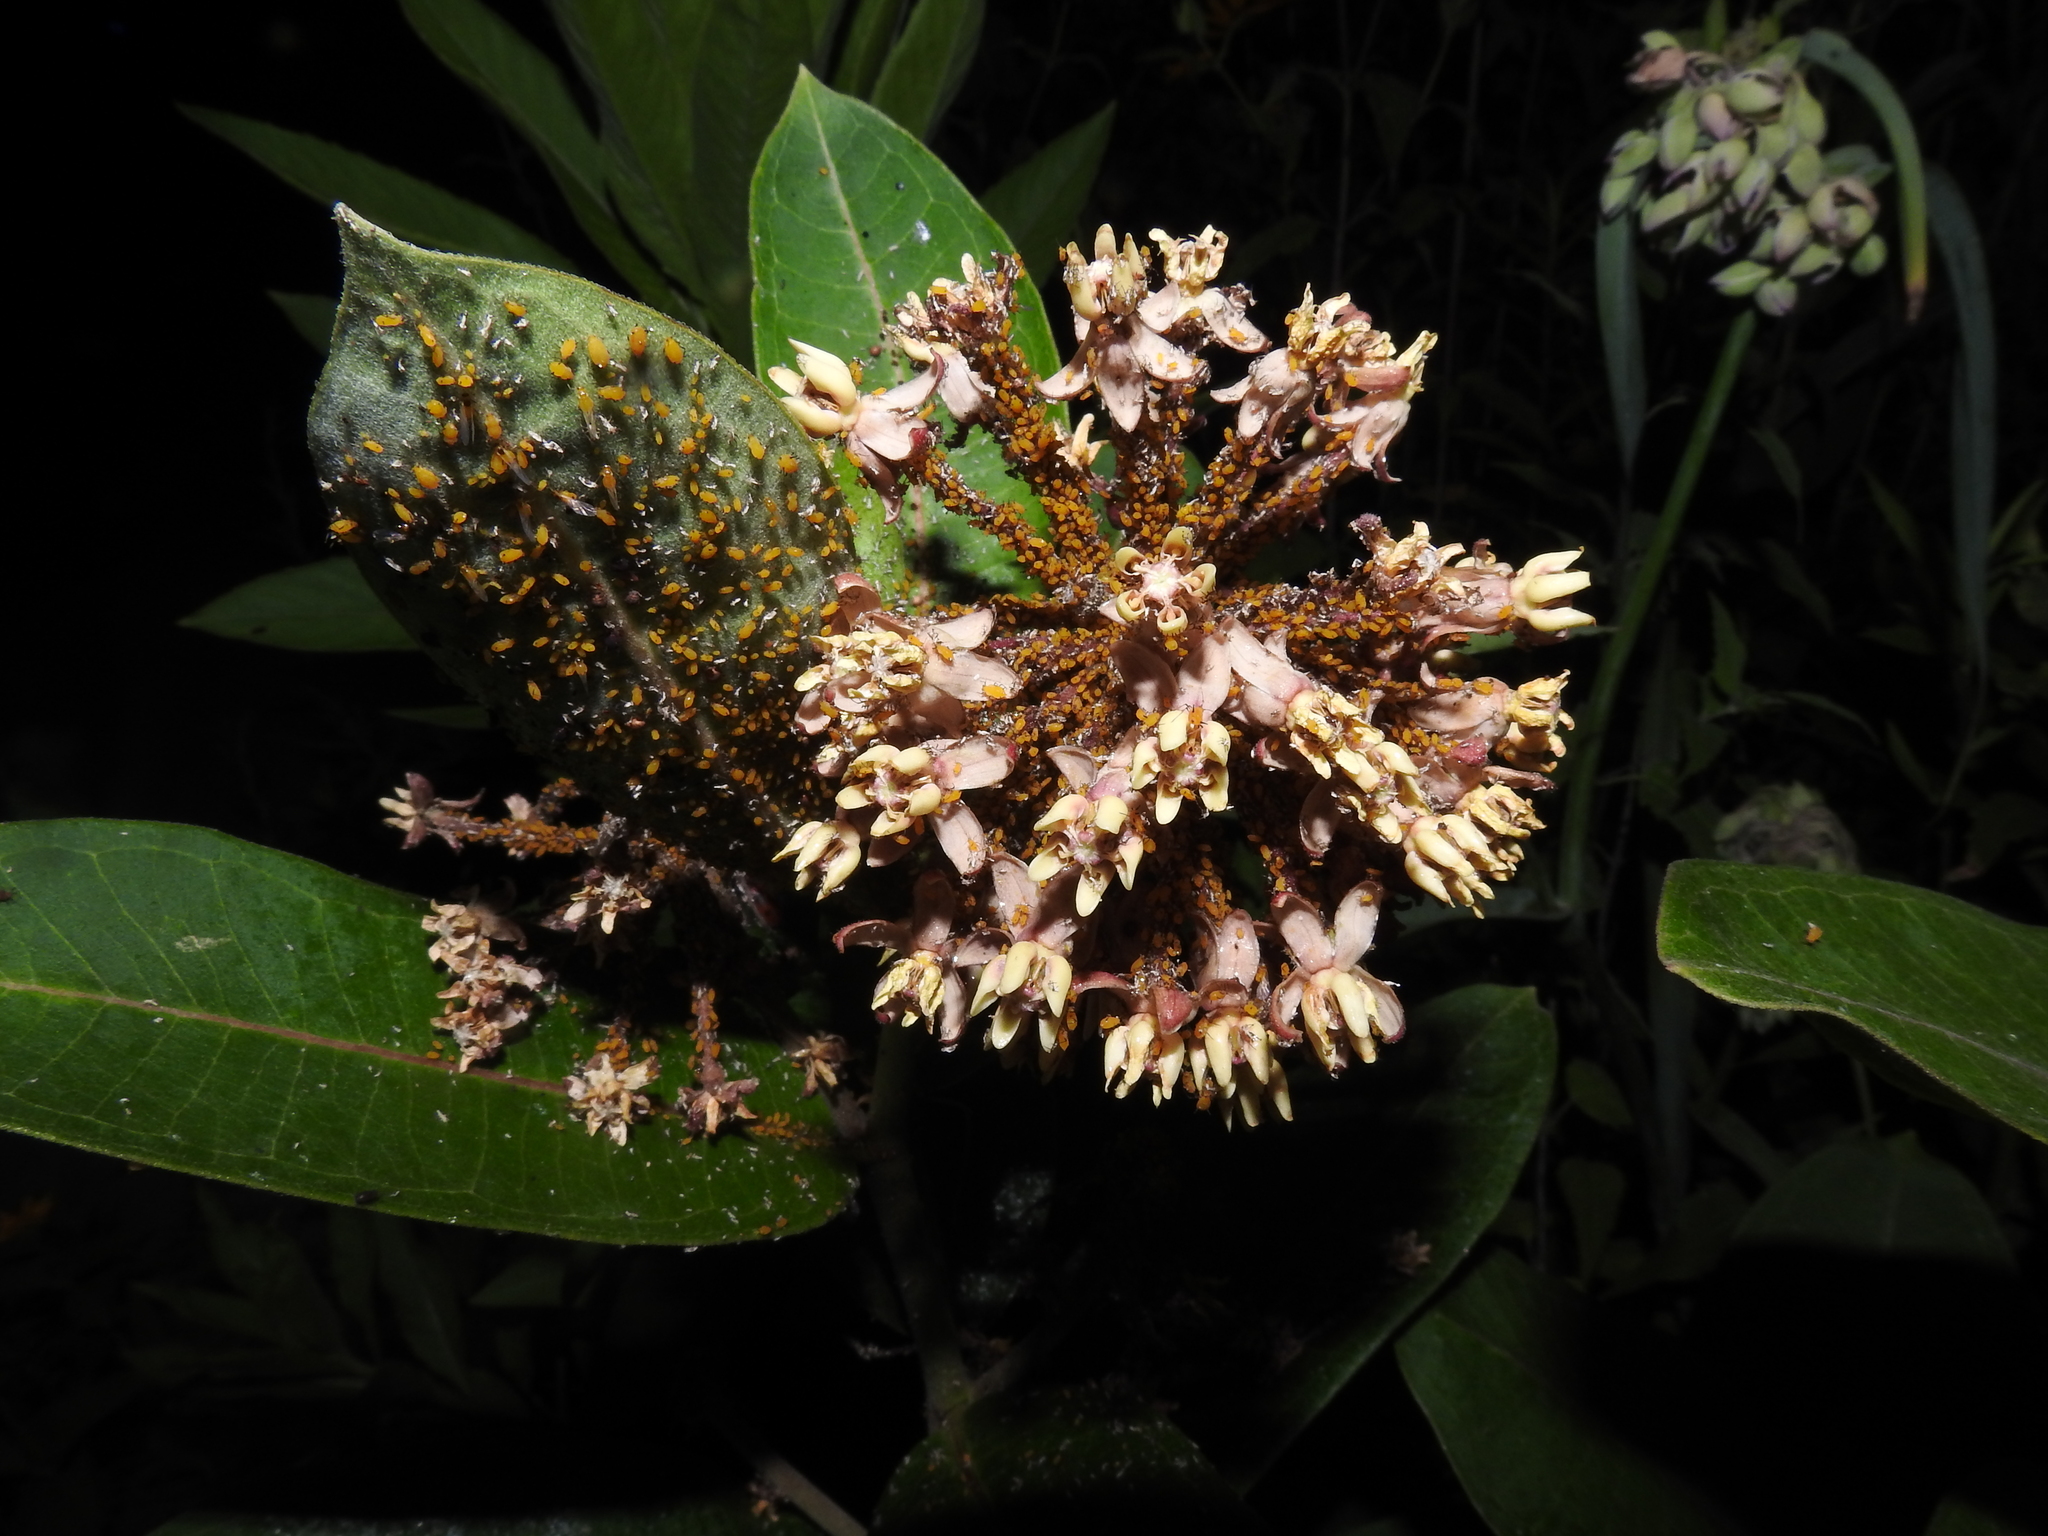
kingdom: Animalia
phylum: Arthropoda
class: Insecta
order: Hemiptera
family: Aphididae
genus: Aphis
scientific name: Aphis nerii
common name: Oleander aphid
